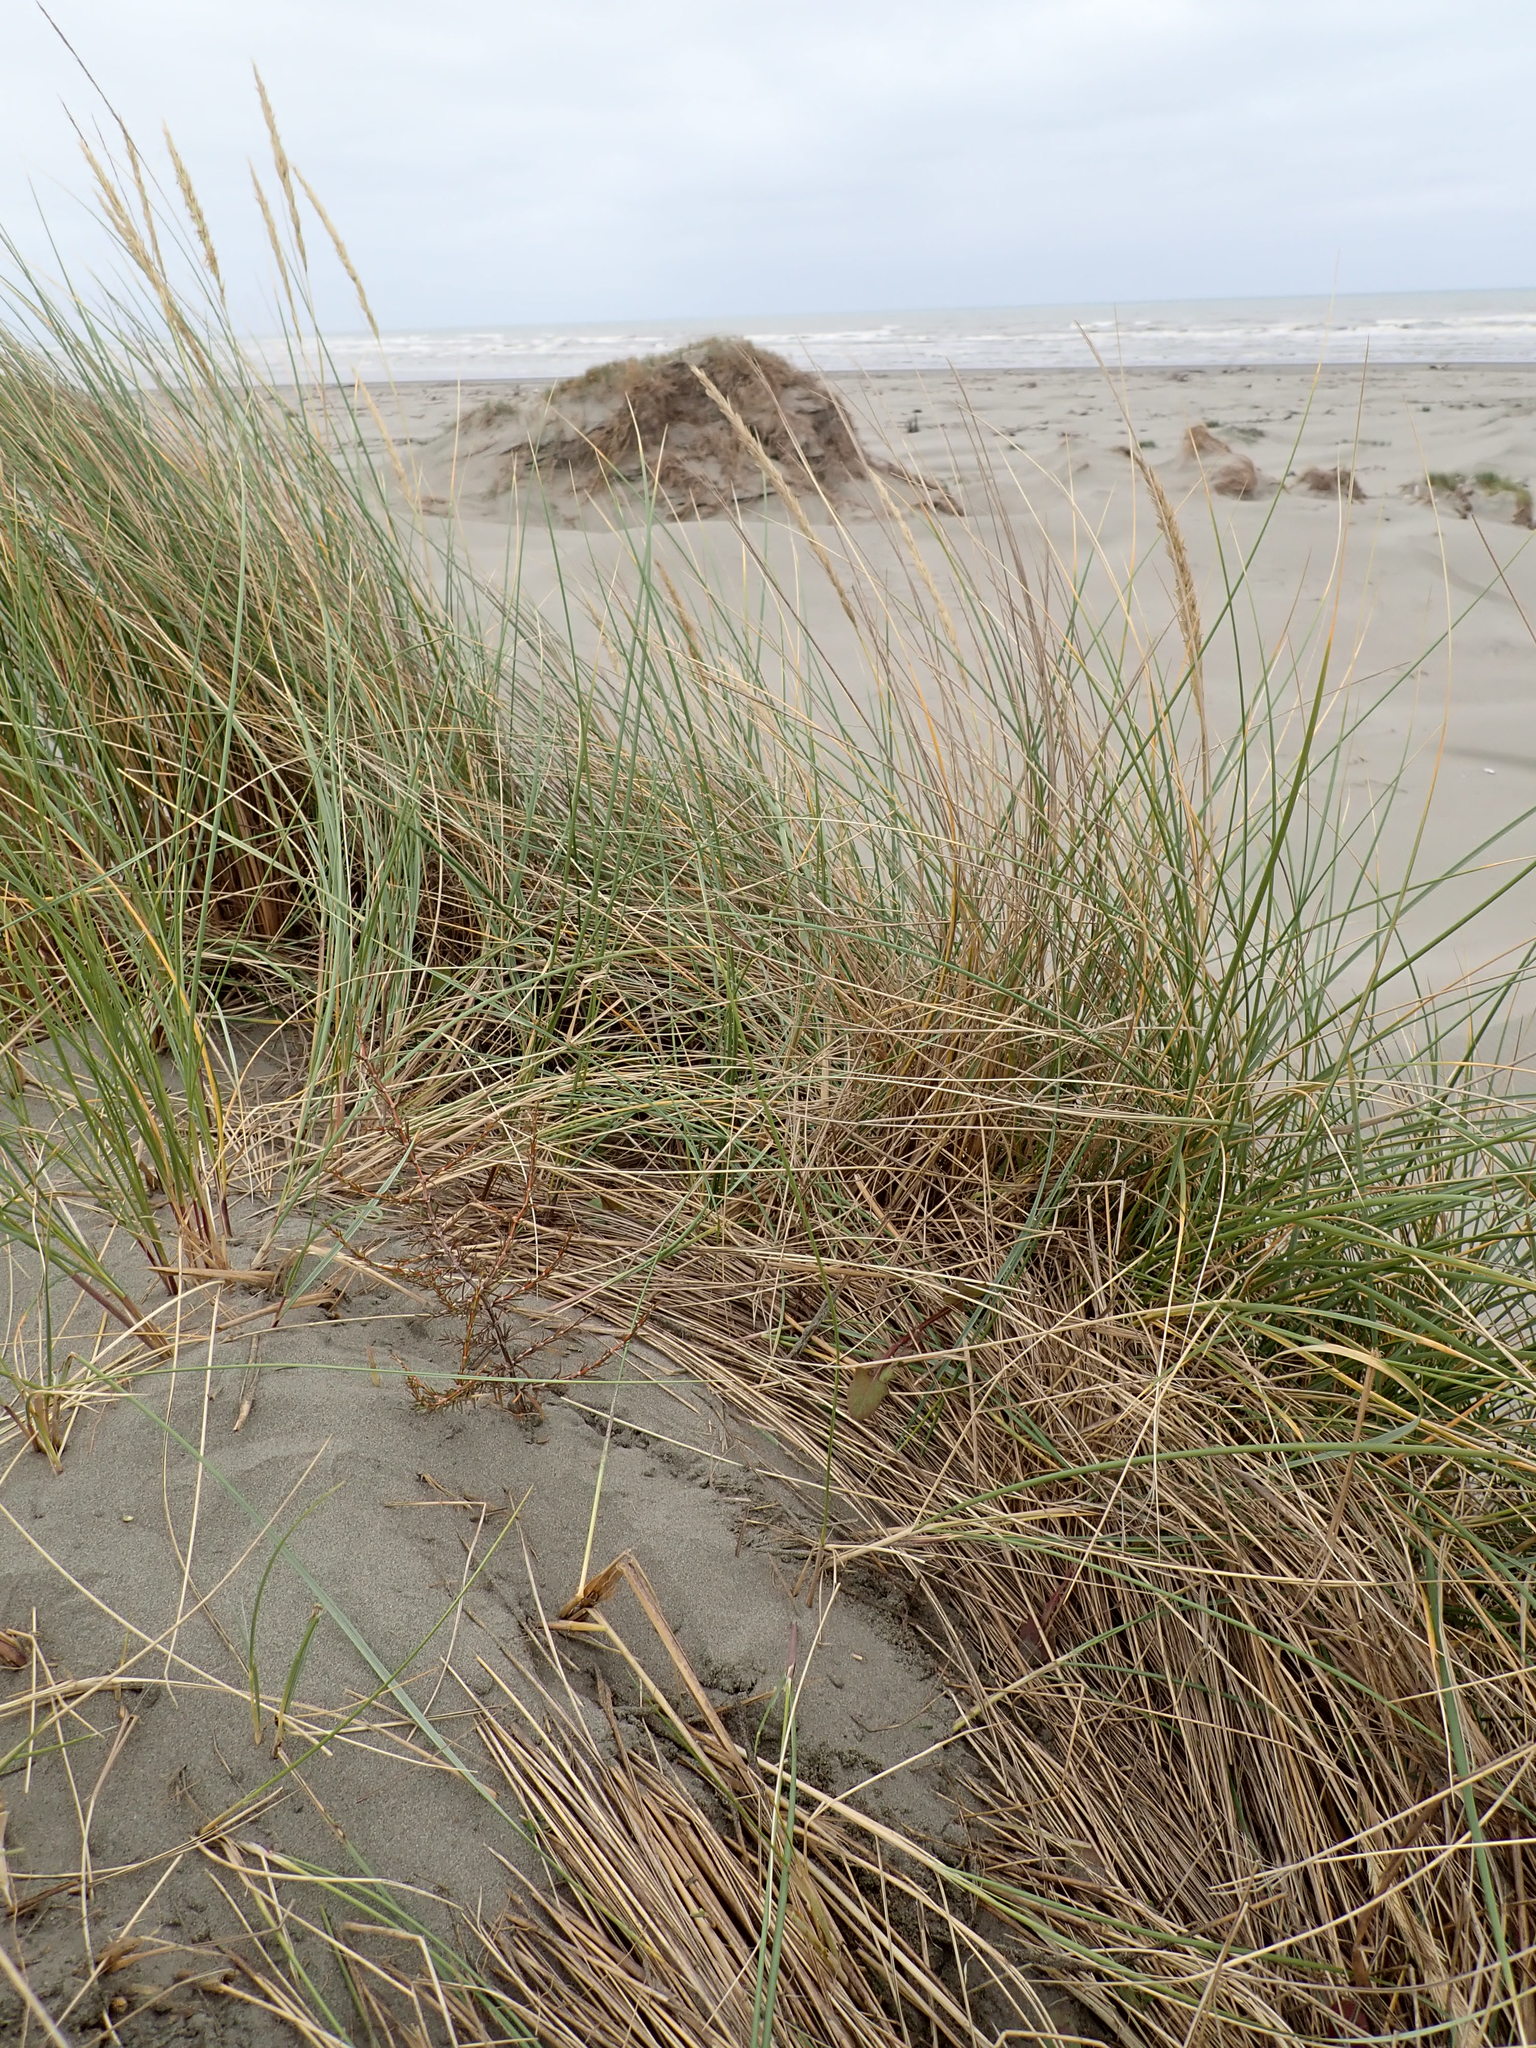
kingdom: Plantae
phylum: Tracheophyta
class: Magnoliopsida
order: Gentianales
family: Rubiaceae
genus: Coprosma
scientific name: Coprosma acerosa
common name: Sand coprosma
